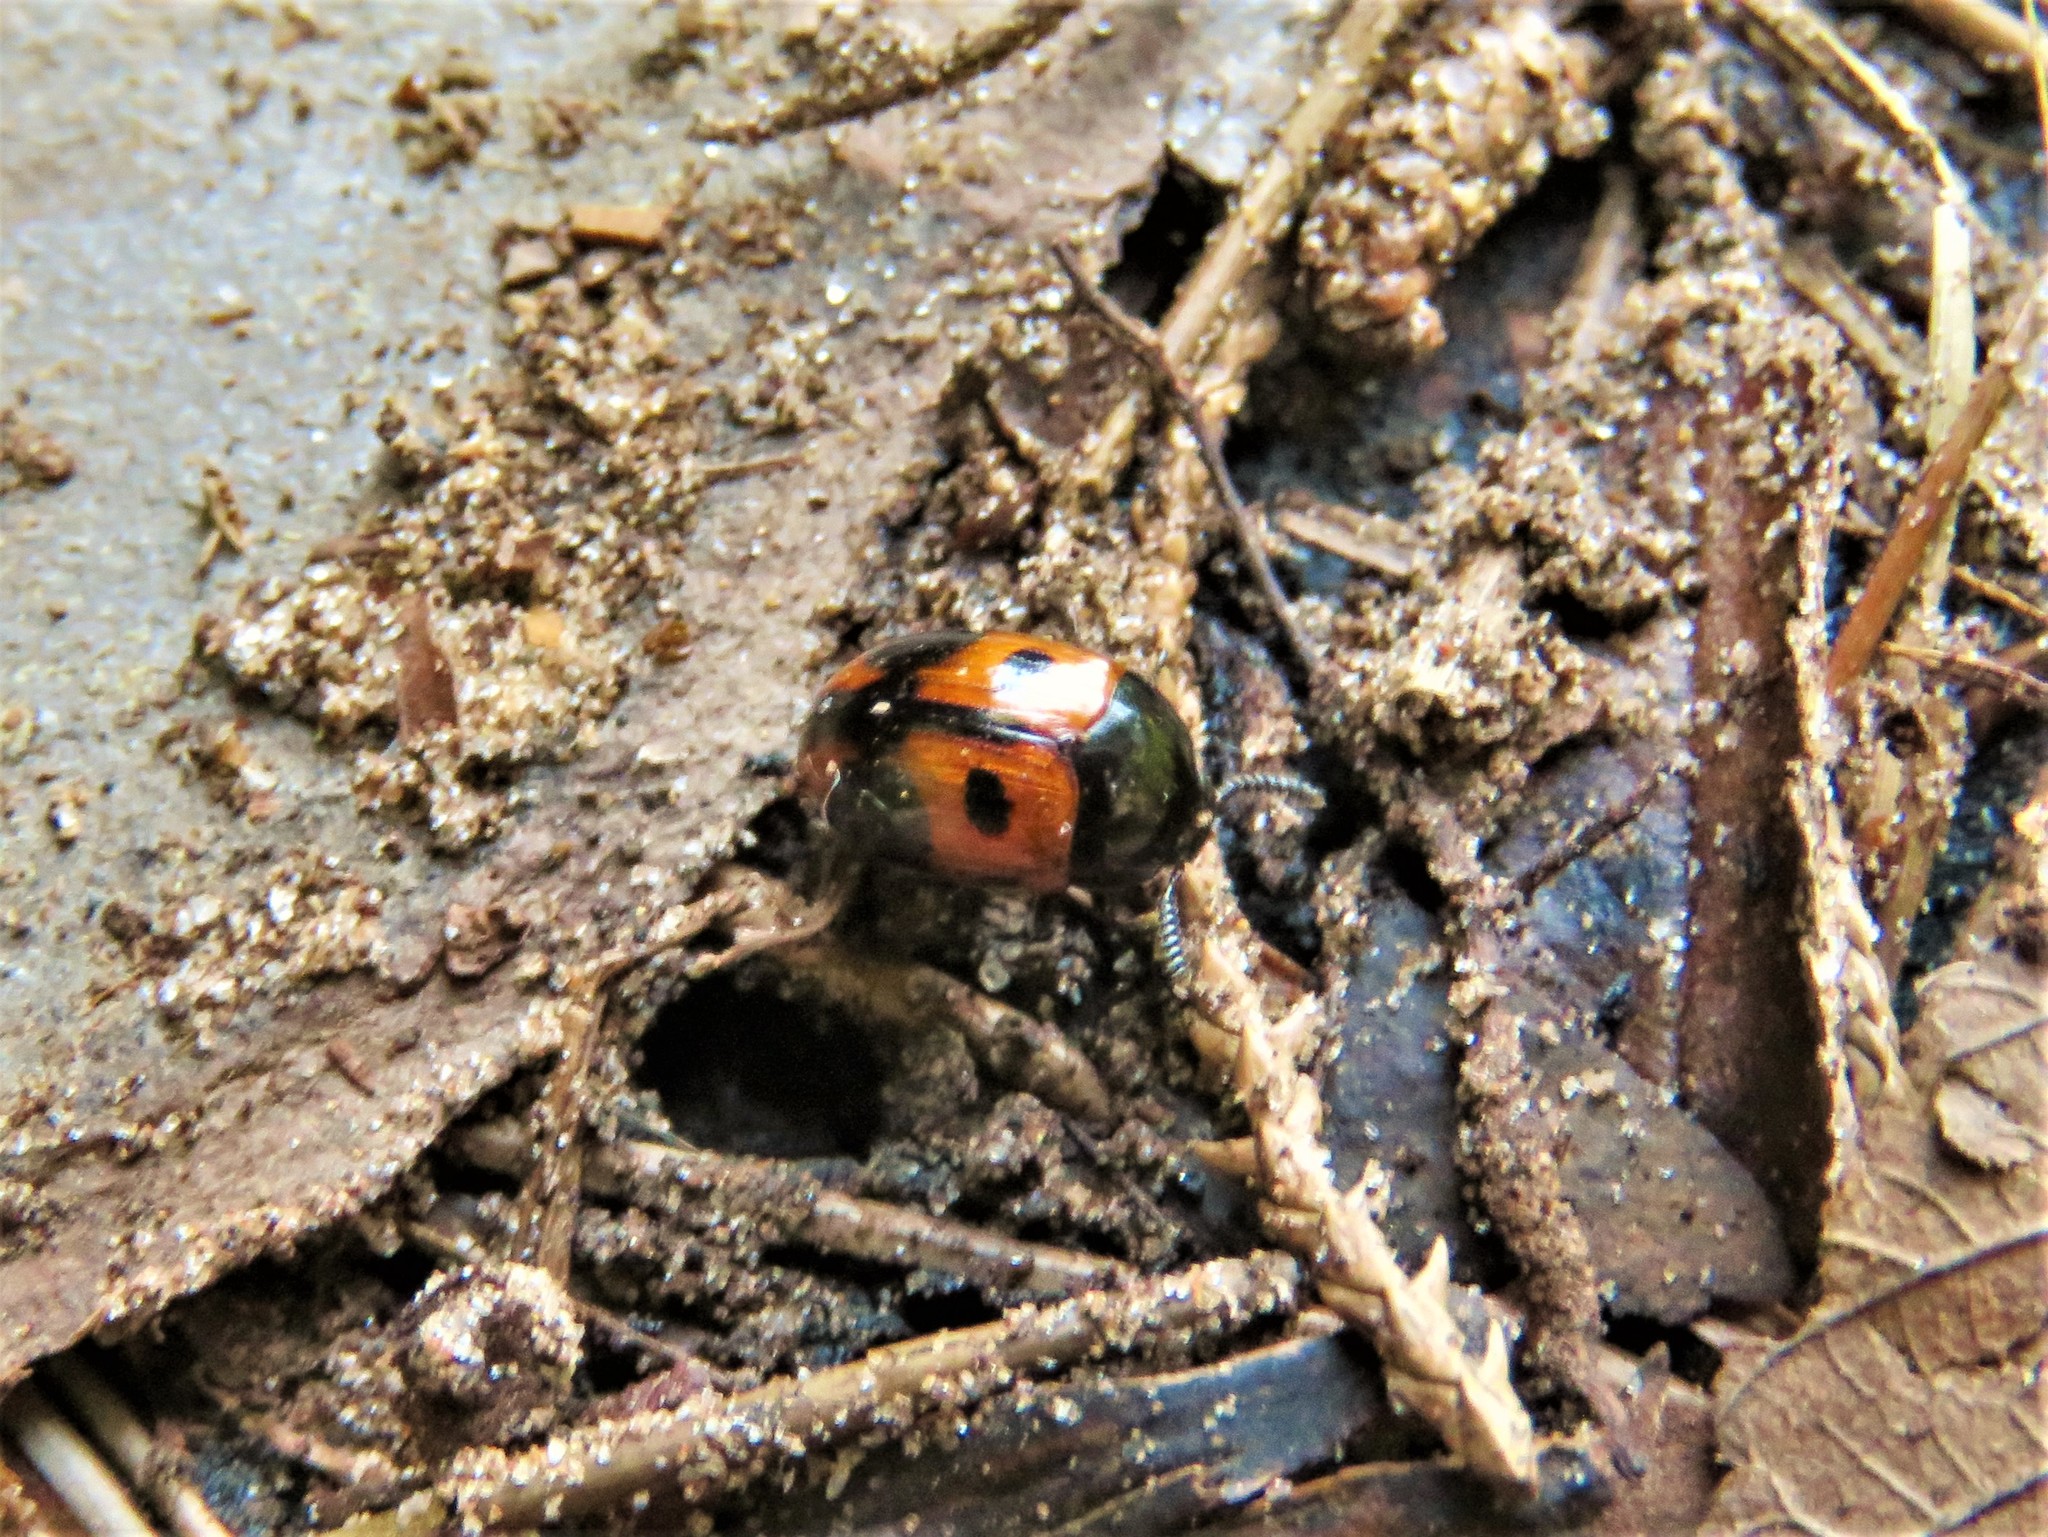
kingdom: Animalia
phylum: Arthropoda
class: Insecta
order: Coleoptera
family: Tenebrionidae
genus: Diaperis
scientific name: Diaperis maculata
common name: Darkling beetle
